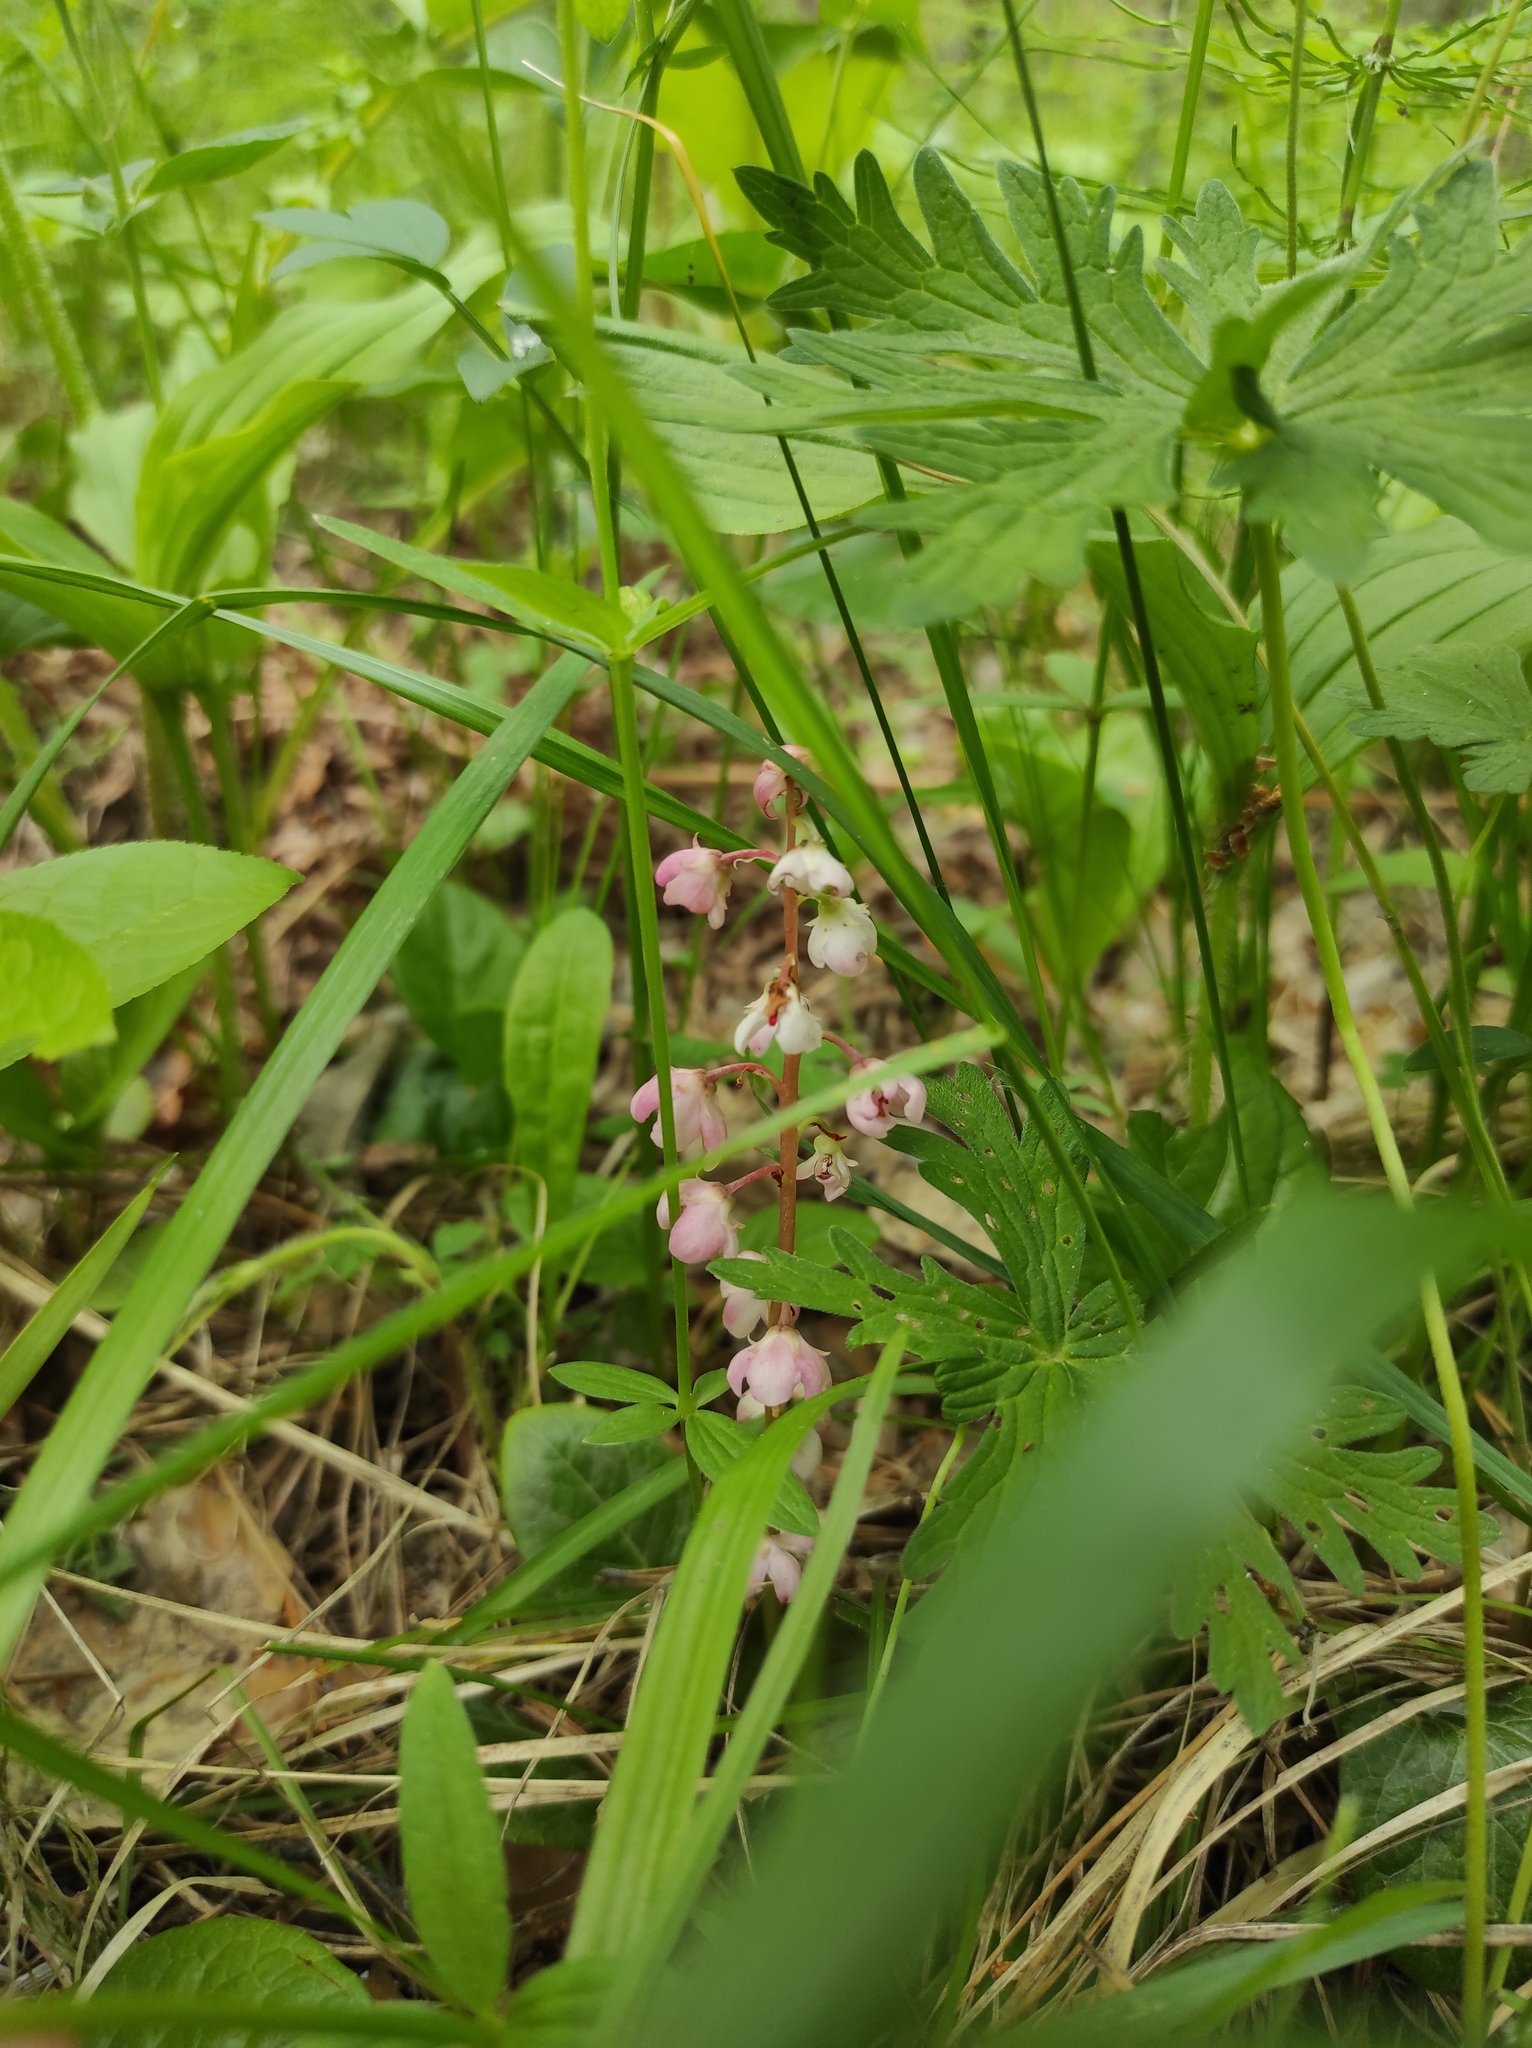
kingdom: Plantae
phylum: Tracheophyta
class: Magnoliopsida
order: Ericales
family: Ericaceae
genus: Pyrola
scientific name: Pyrola asarifolia
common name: Bog wintergreen
